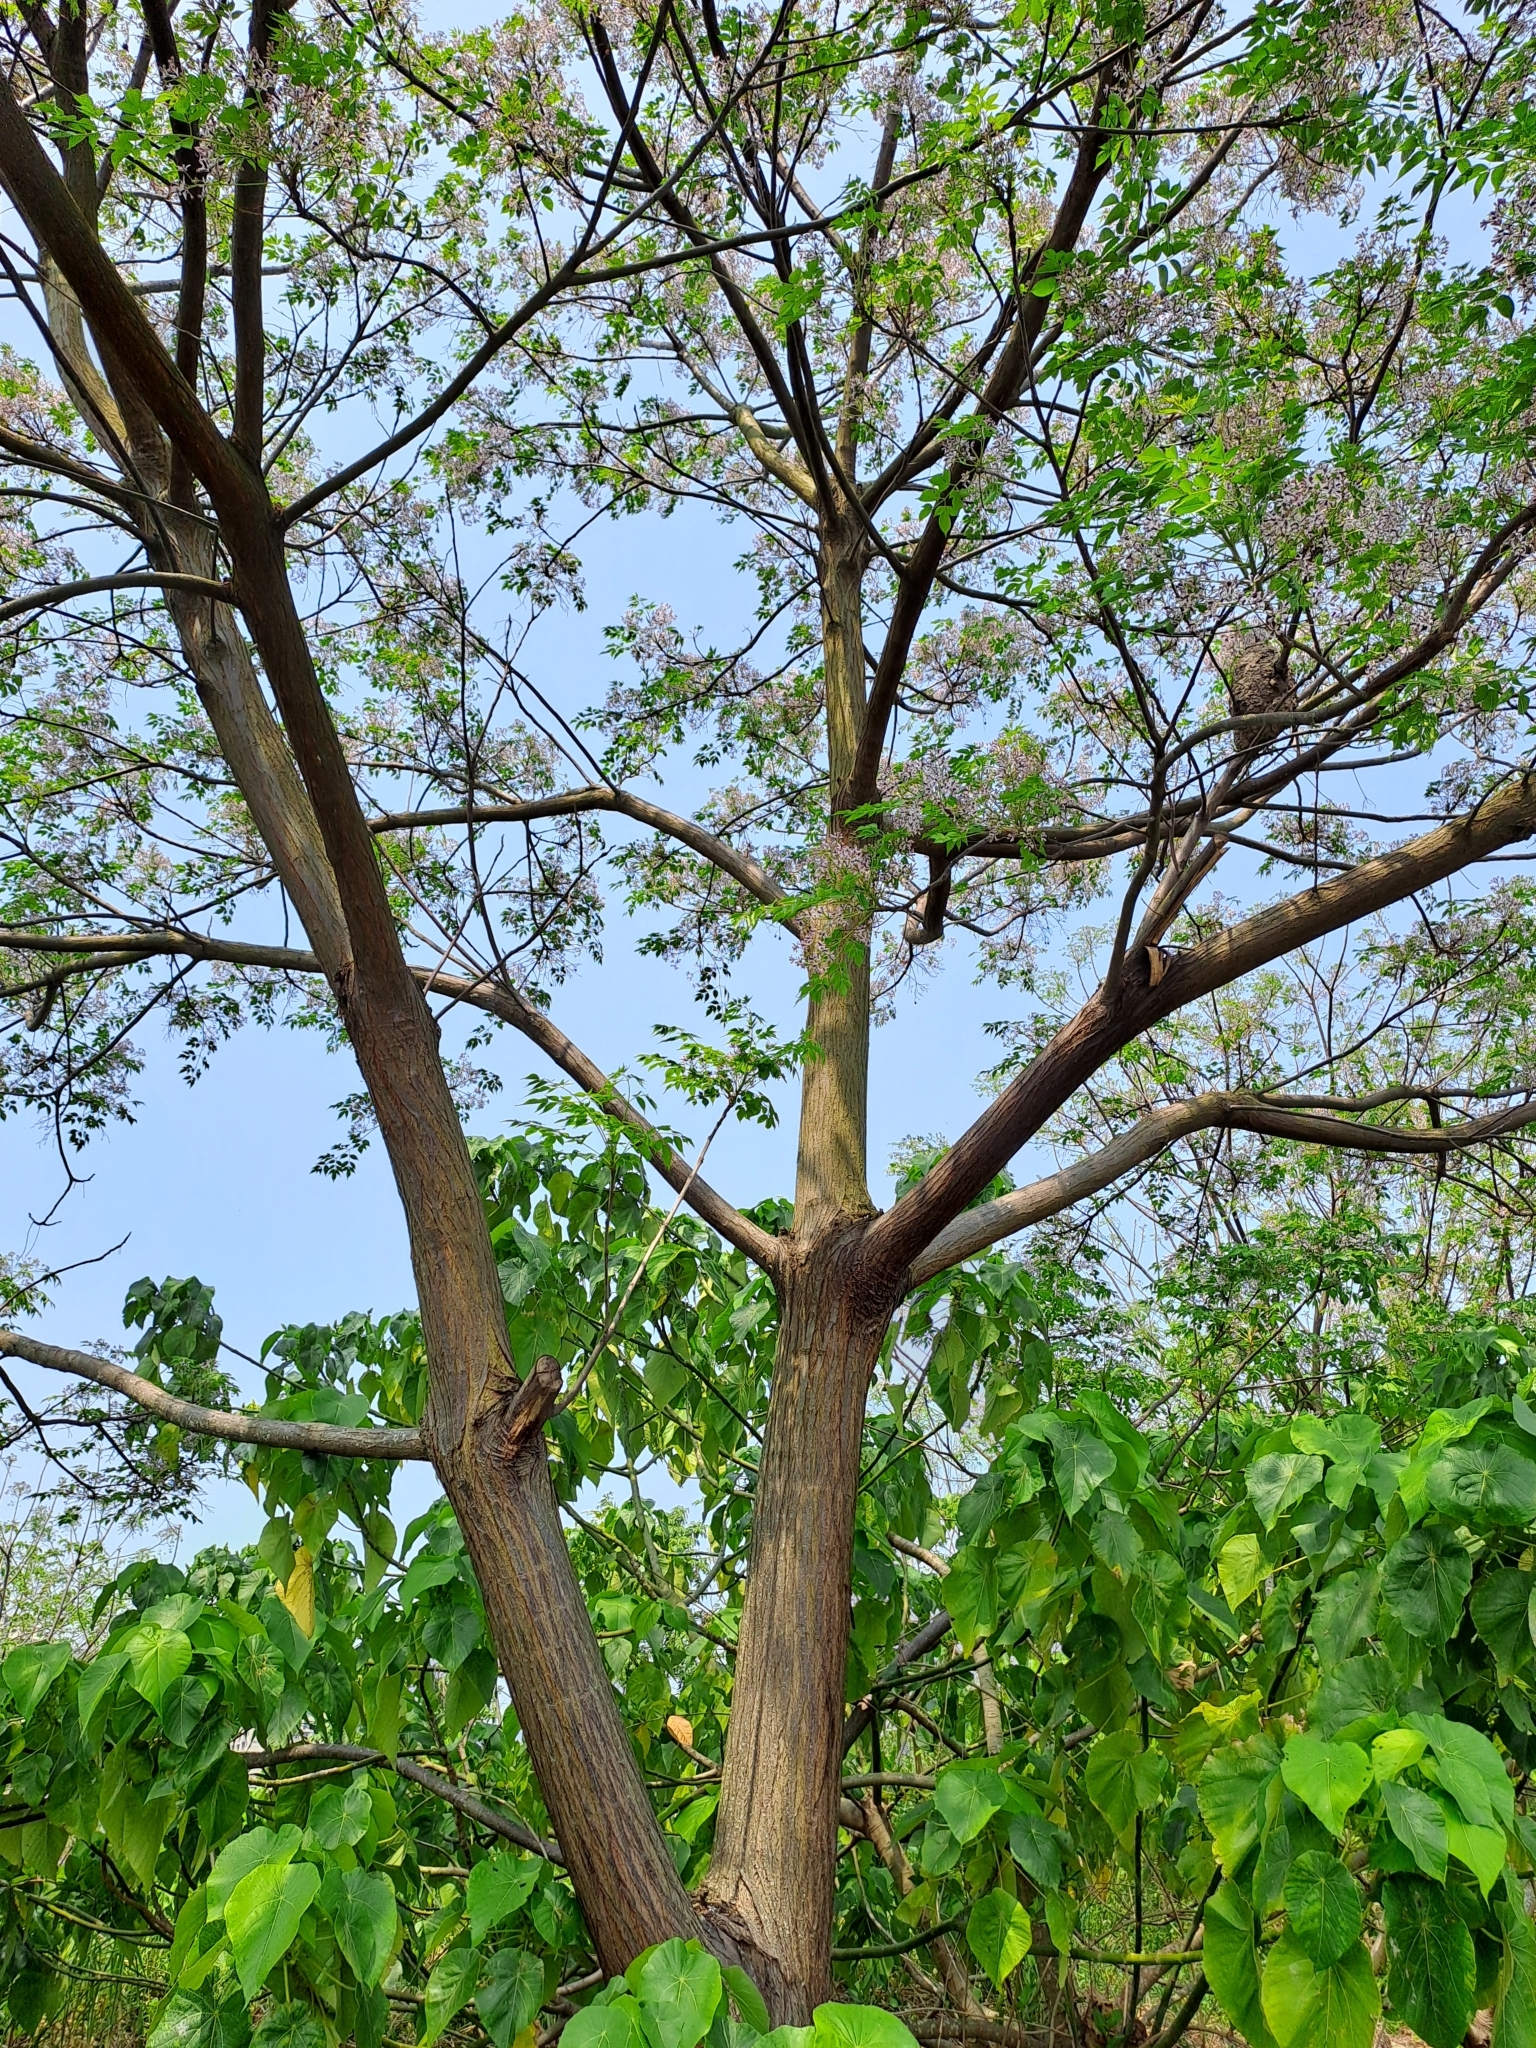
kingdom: Plantae
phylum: Tracheophyta
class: Magnoliopsida
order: Sapindales
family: Meliaceae
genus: Melia
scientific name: Melia azedarach
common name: Chinaberrytree
